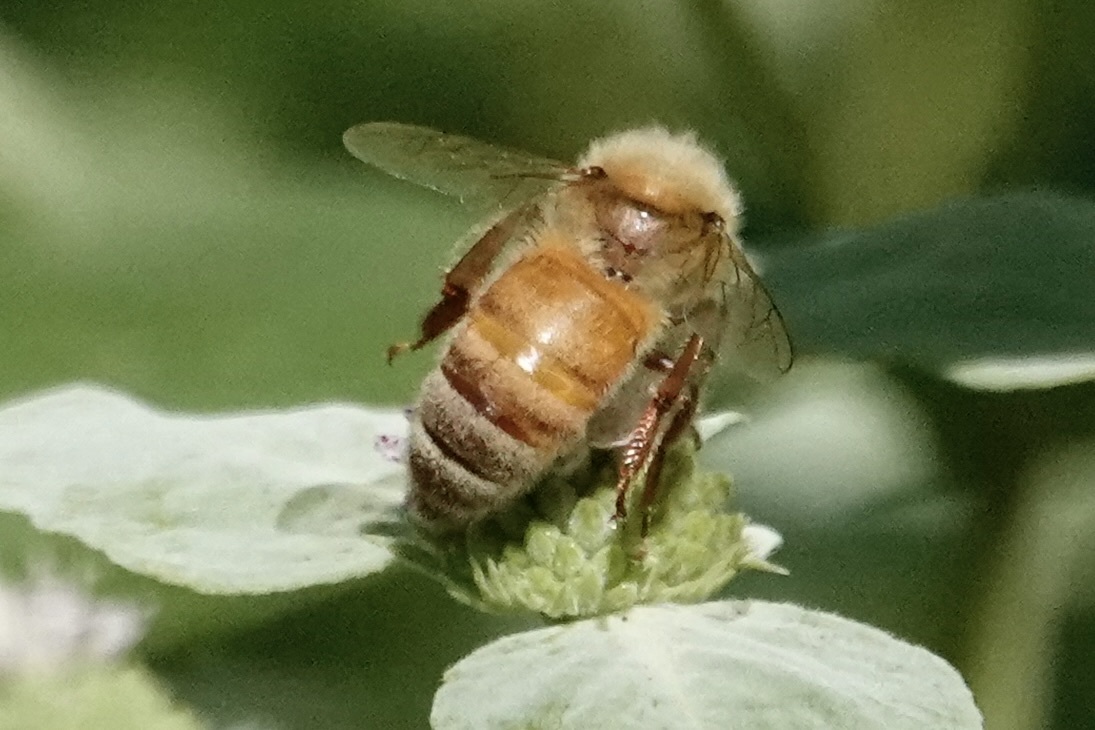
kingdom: Animalia
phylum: Arthropoda
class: Insecta
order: Hymenoptera
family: Apidae
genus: Apis
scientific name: Apis mellifera
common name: Honey bee
